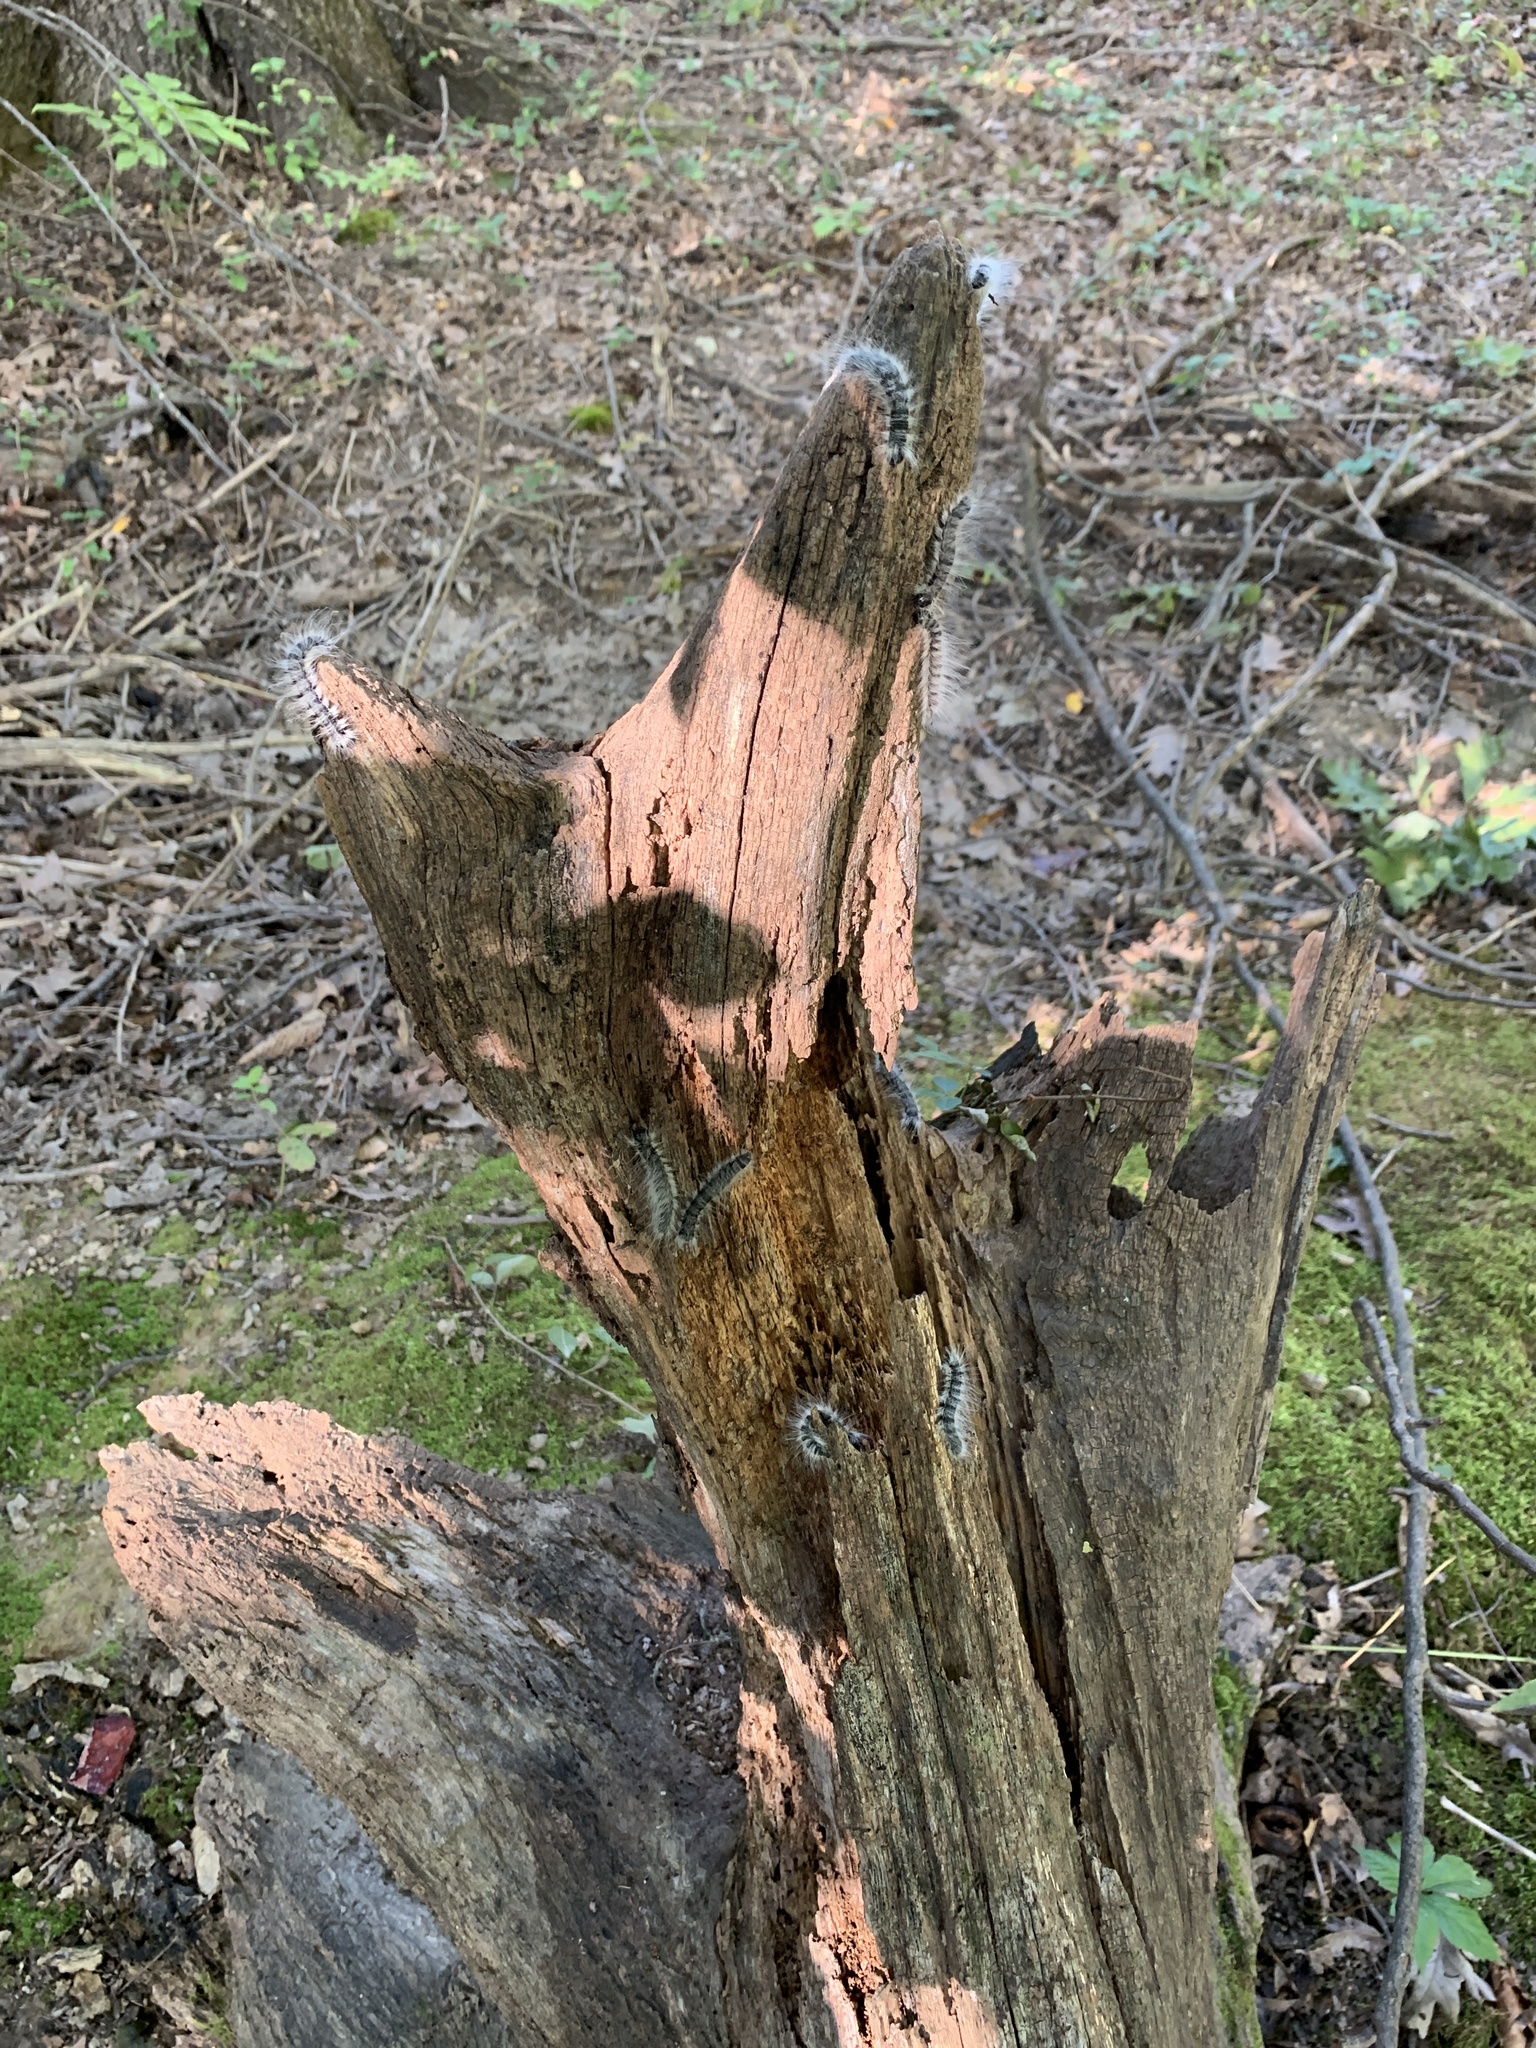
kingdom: Animalia
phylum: Arthropoda
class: Insecta
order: Lepidoptera
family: Notodontidae
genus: Datana
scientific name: Datana integerrima
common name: Walnut caterpillar
